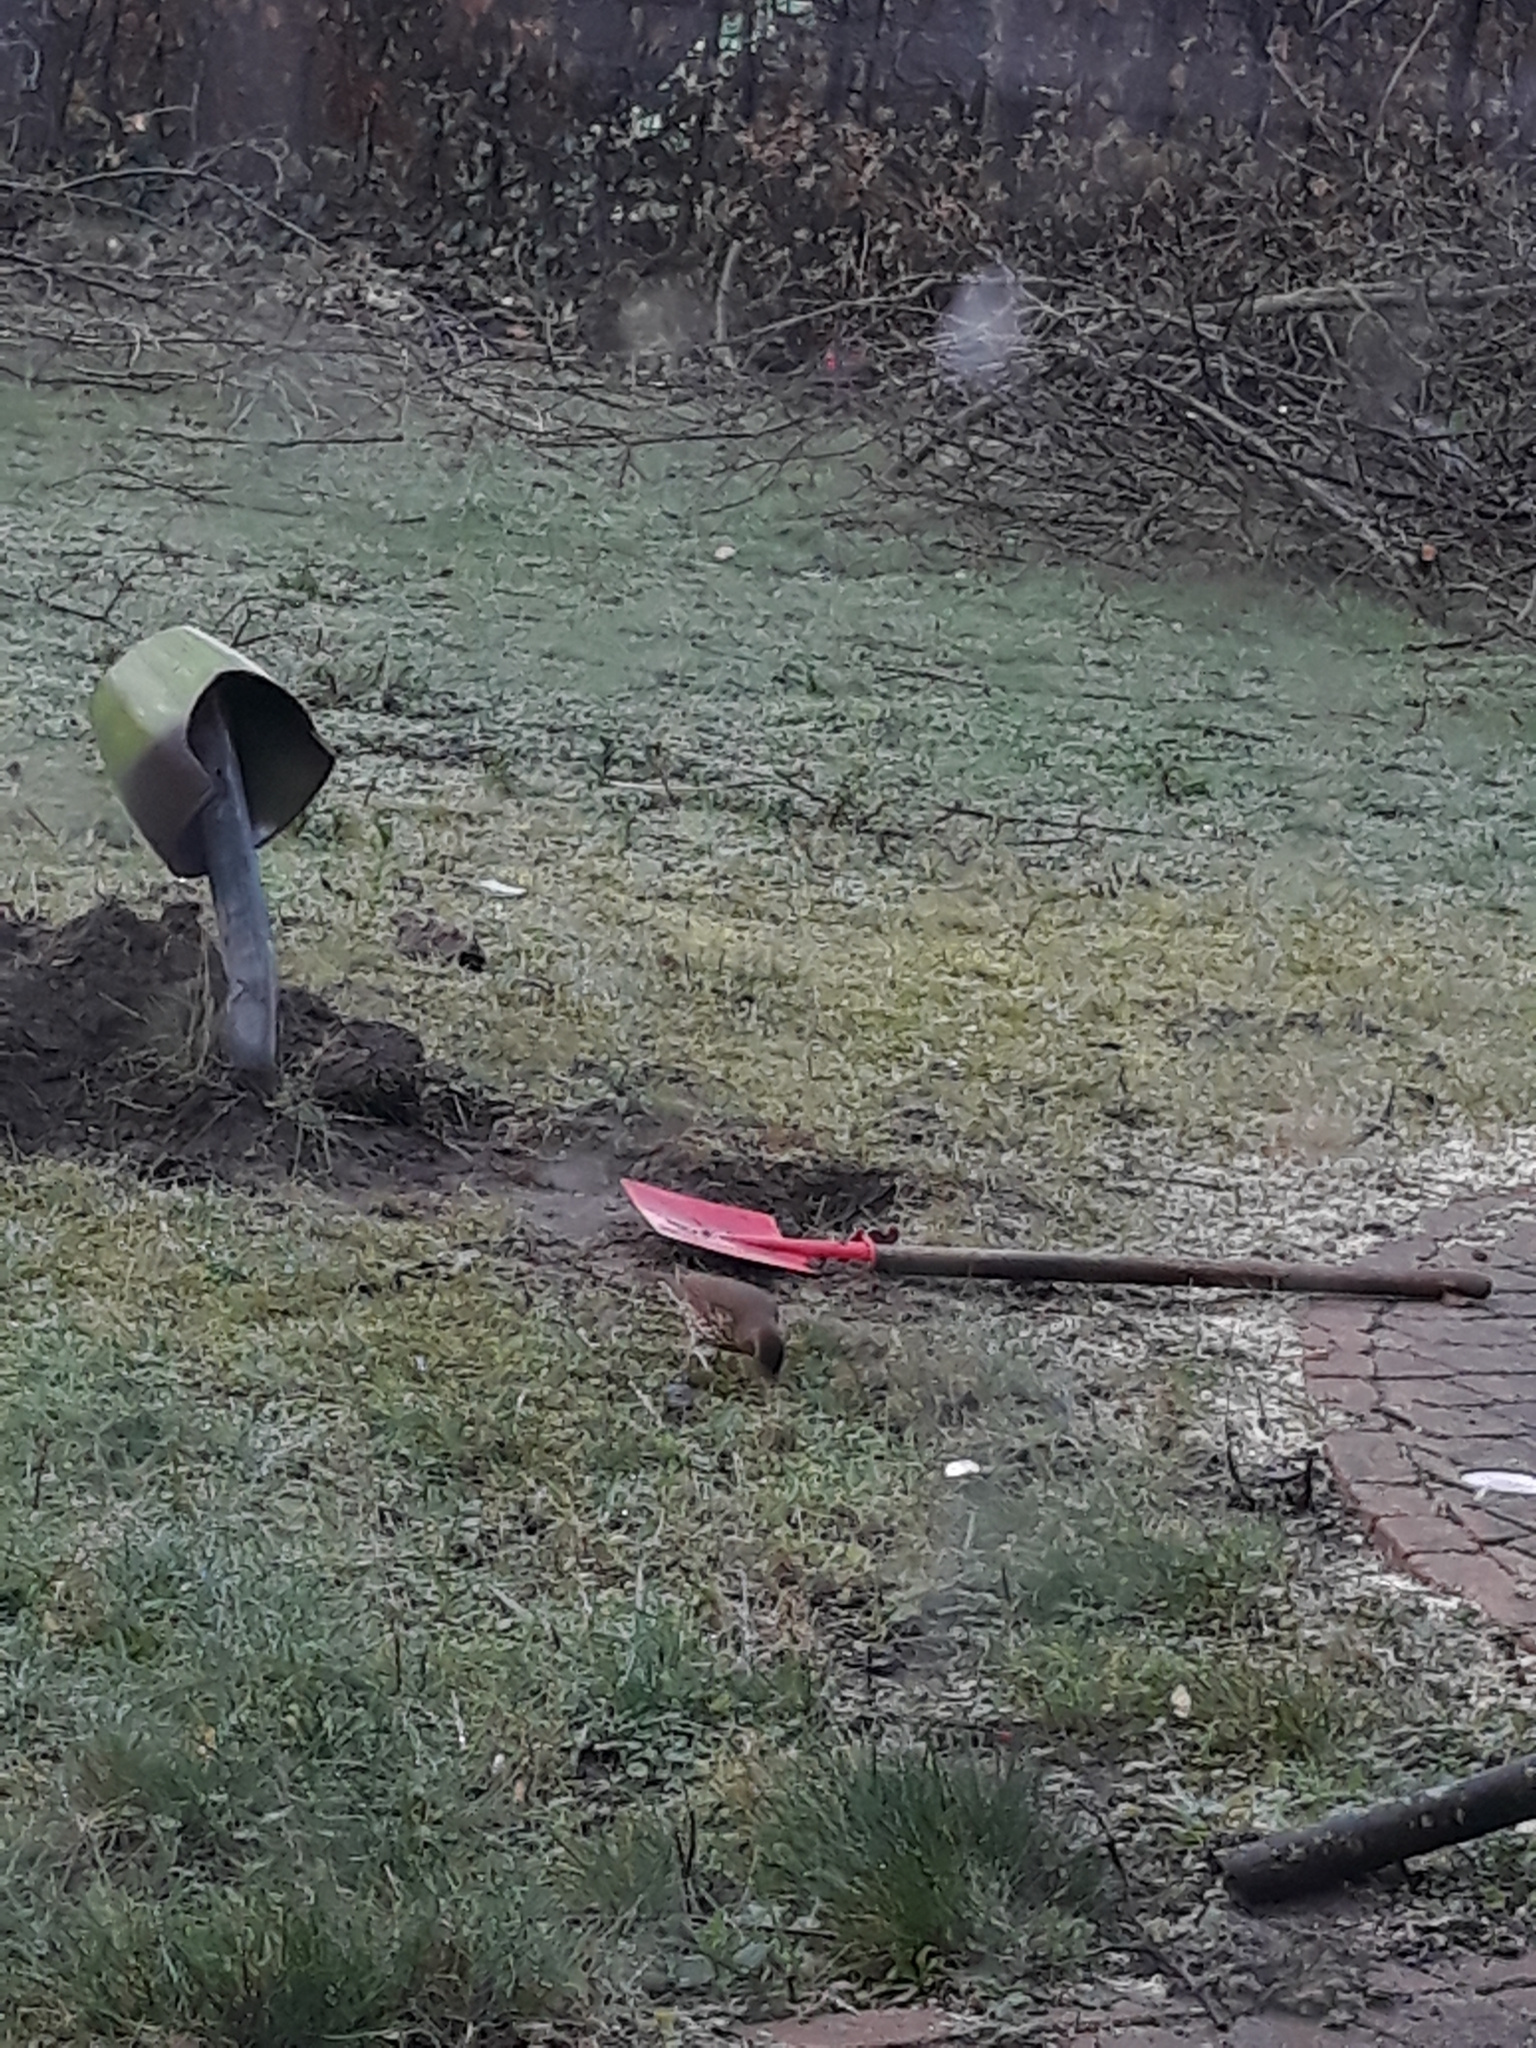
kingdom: Animalia
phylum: Chordata
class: Aves
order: Passeriformes
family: Turdidae
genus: Turdus
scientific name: Turdus philomelos
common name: Song thrush
